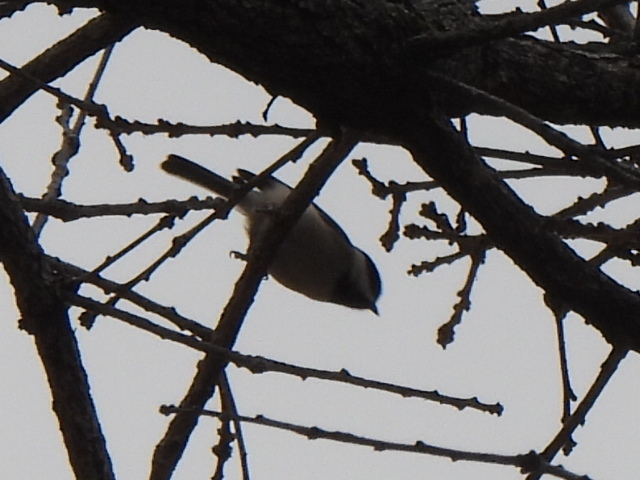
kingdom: Animalia
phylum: Chordata
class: Aves
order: Passeriformes
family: Paridae
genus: Poecile
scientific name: Poecile carolinensis
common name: Carolina chickadee
